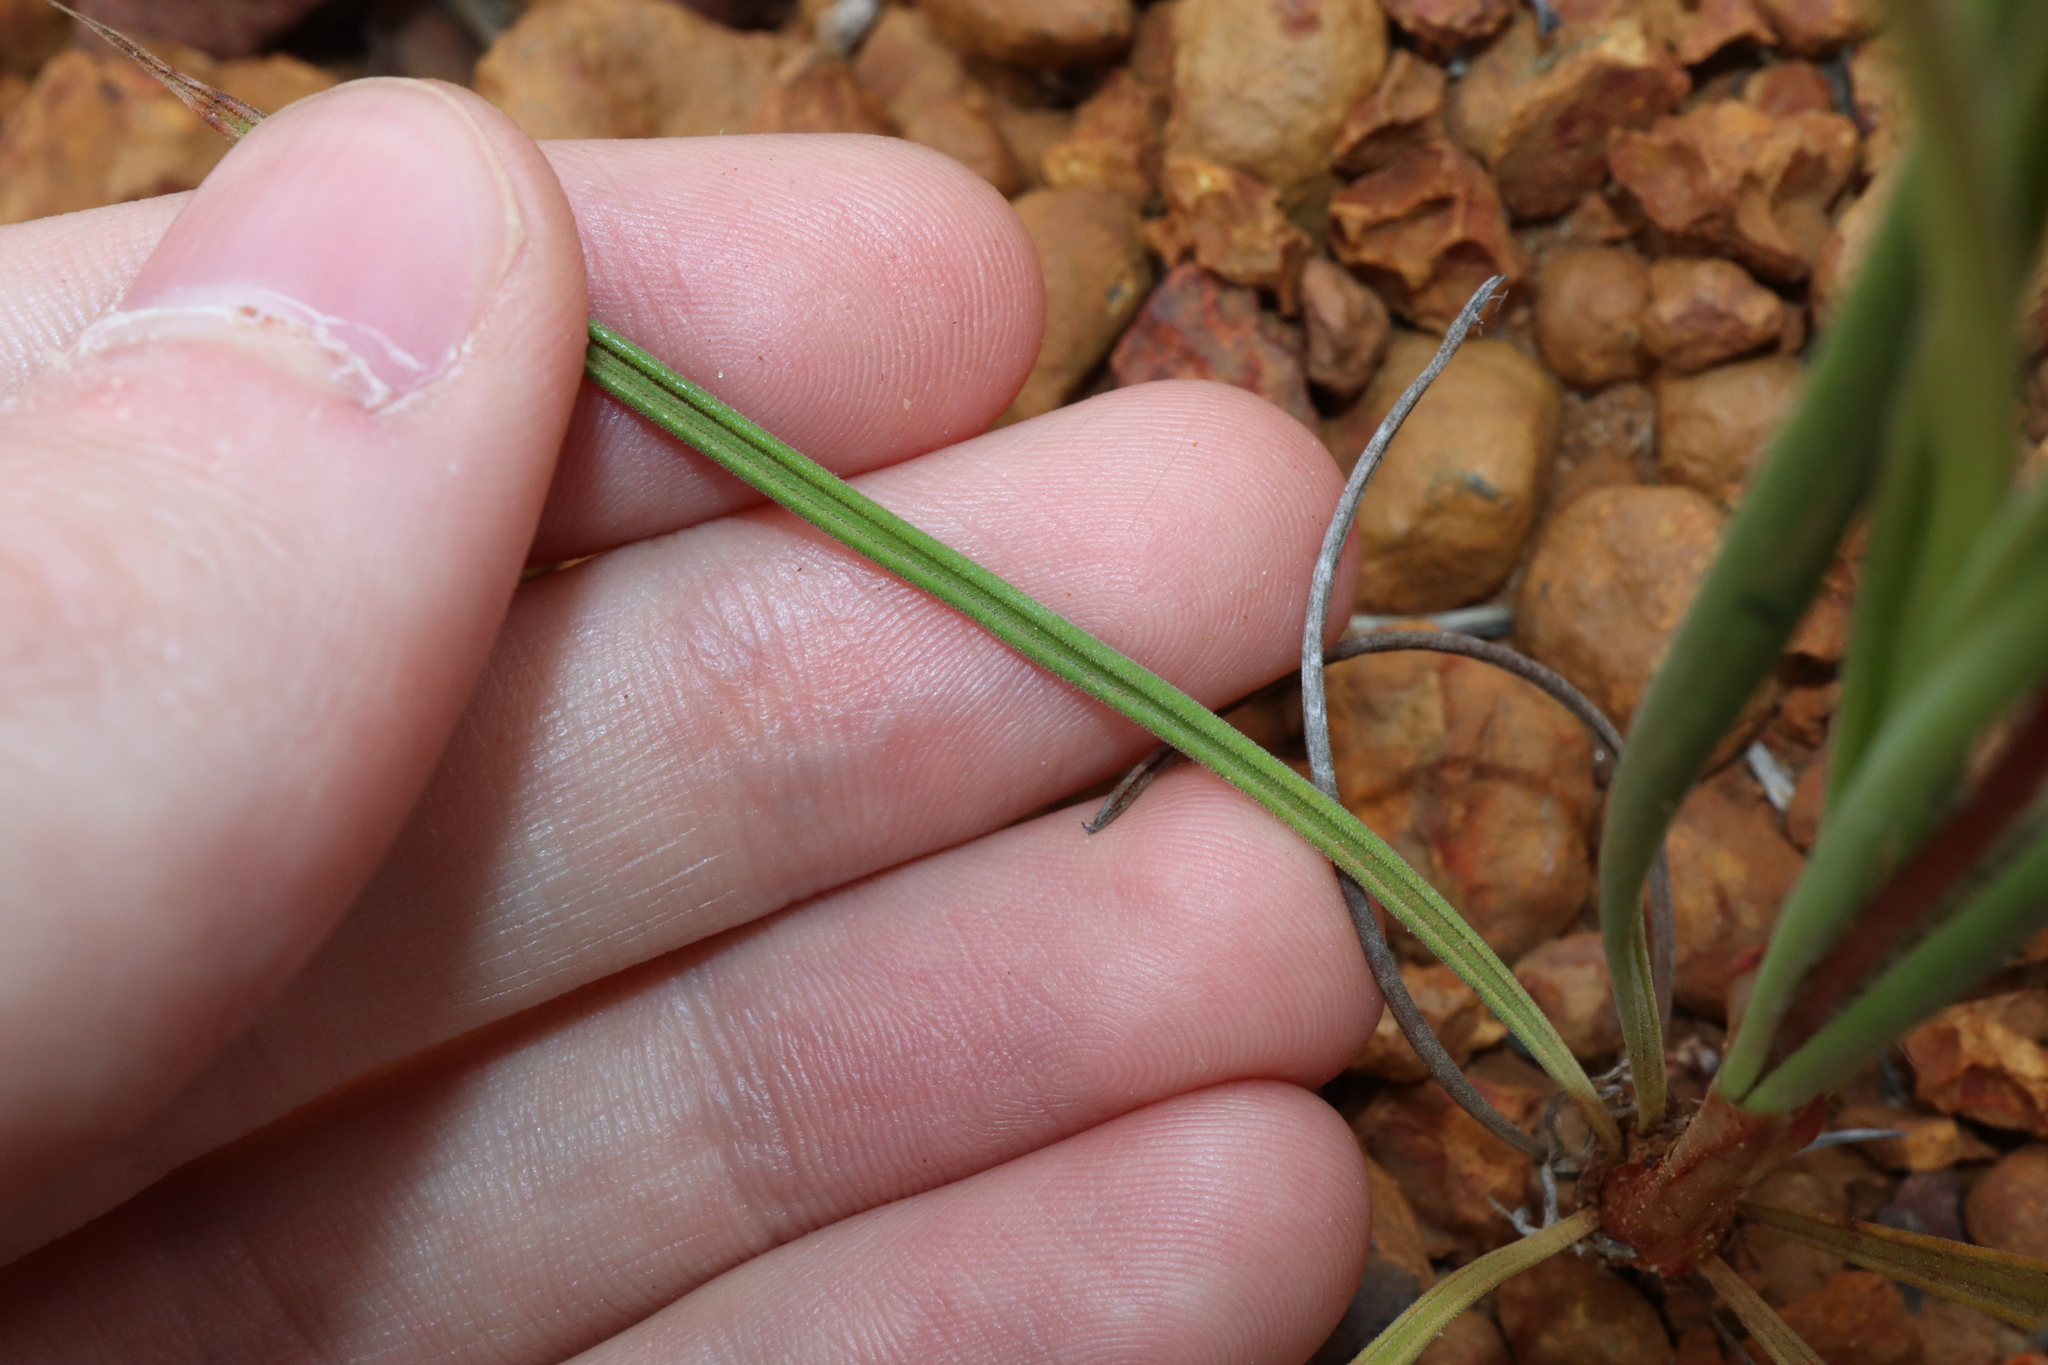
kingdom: Plantae
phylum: Tracheophyta
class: Magnoliopsida
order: Asterales
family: Stylidiaceae
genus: Stylidium
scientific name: Stylidium albomontis
